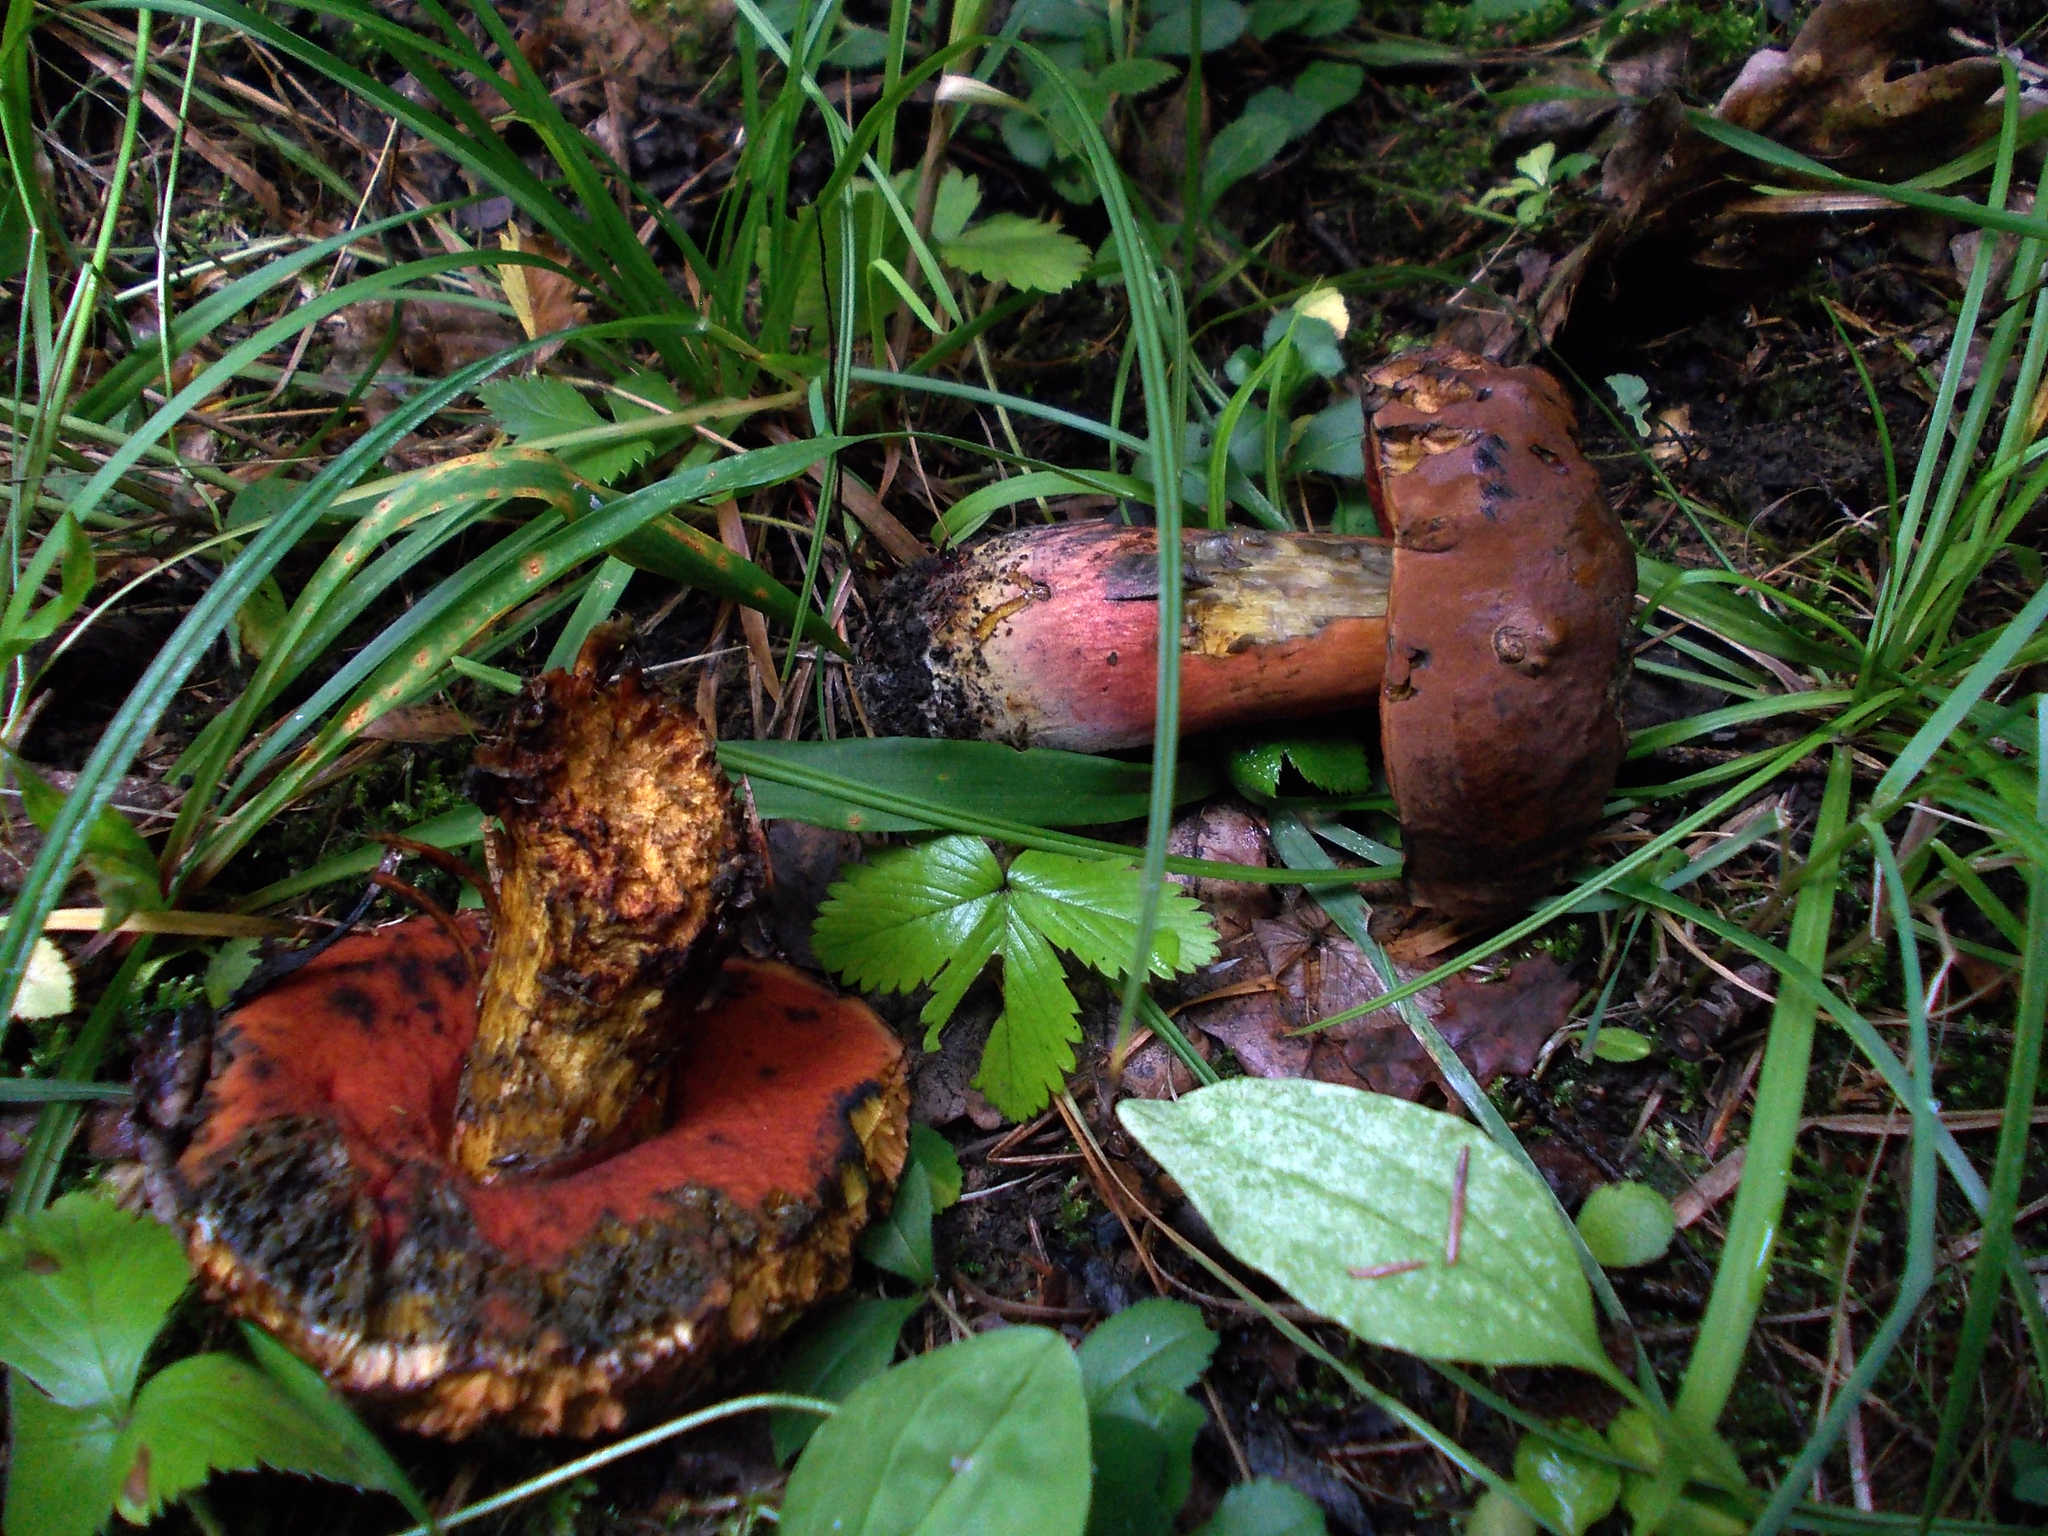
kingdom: Fungi
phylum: Basidiomycota
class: Agaricomycetes
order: Boletales
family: Boletaceae
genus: Neoboletus
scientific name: Neoboletus erythropus
